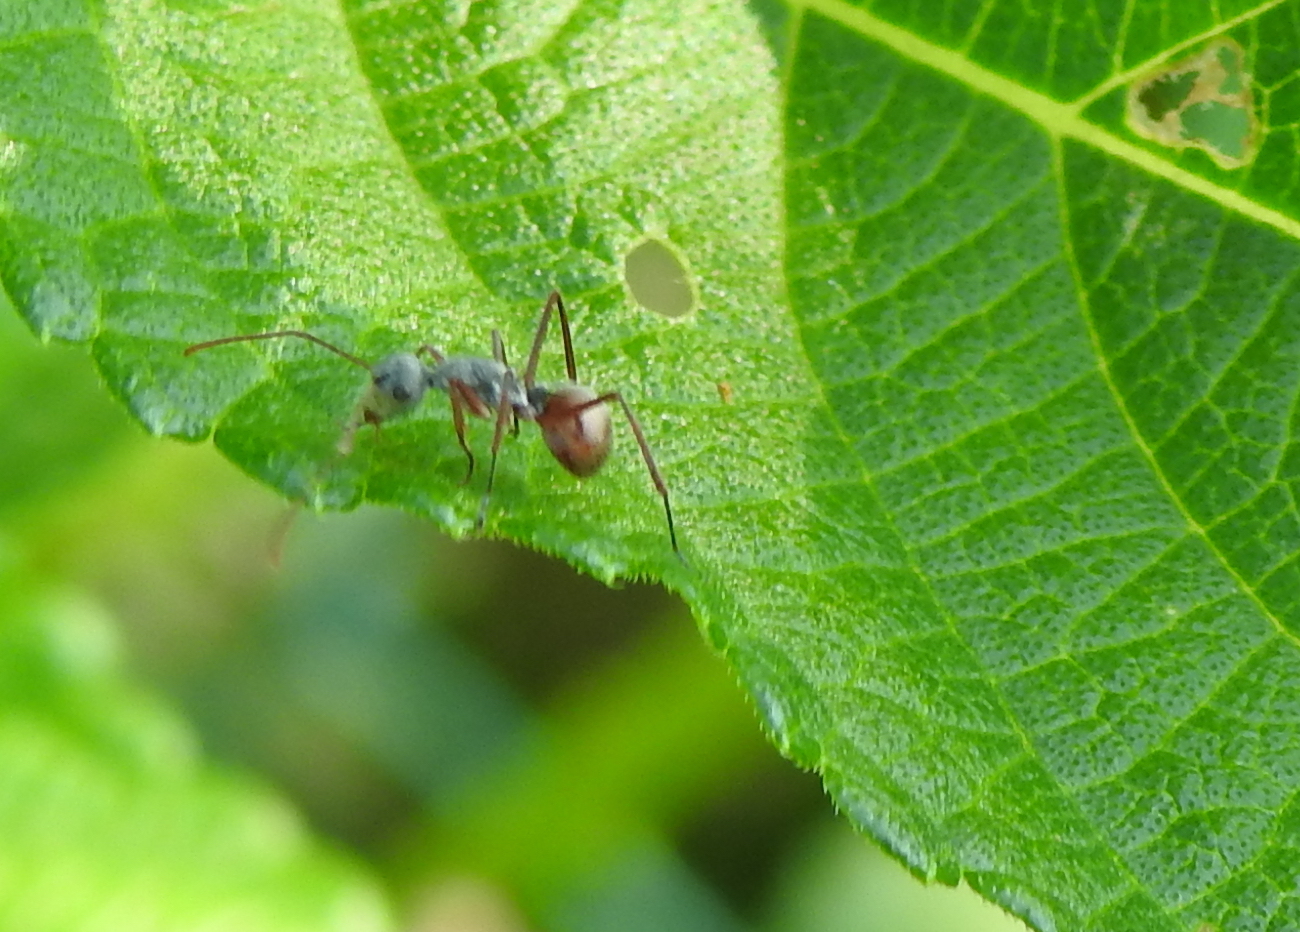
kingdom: Animalia
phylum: Arthropoda
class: Insecta
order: Hymenoptera
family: Formicidae
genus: Polyrhachis
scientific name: Polyrhachis bicolor
